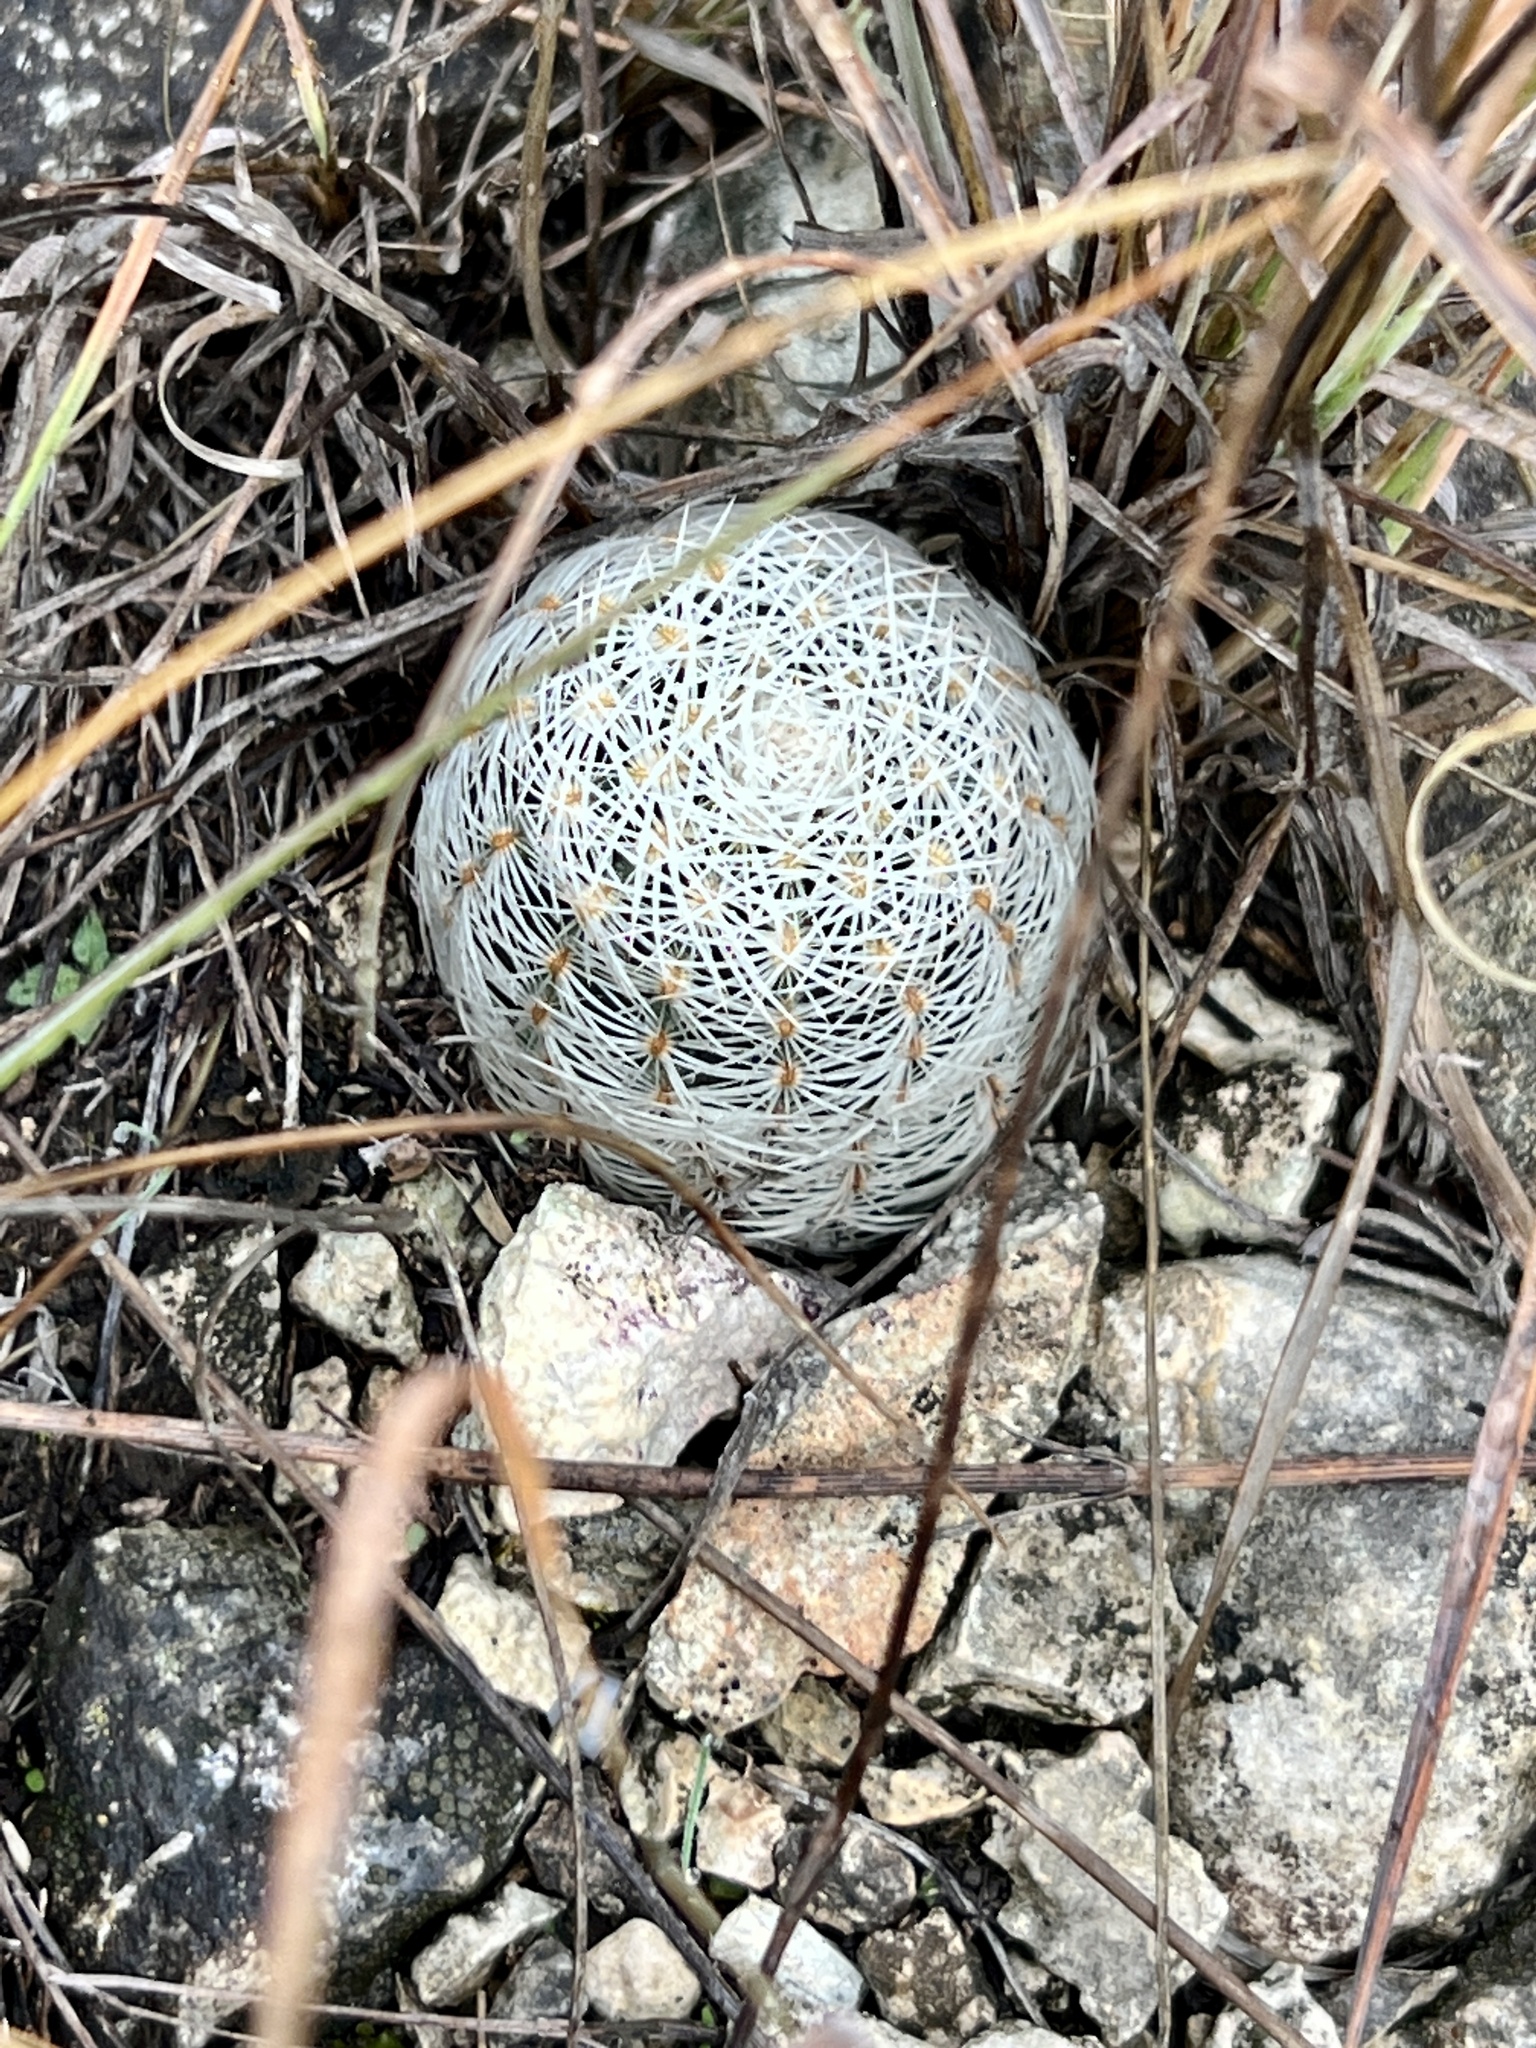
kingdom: Plantae
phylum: Tracheophyta
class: Magnoliopsida
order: Caryophyllales
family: Cactaceae
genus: Echinocereus
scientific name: Echinocereus reichenbachii
